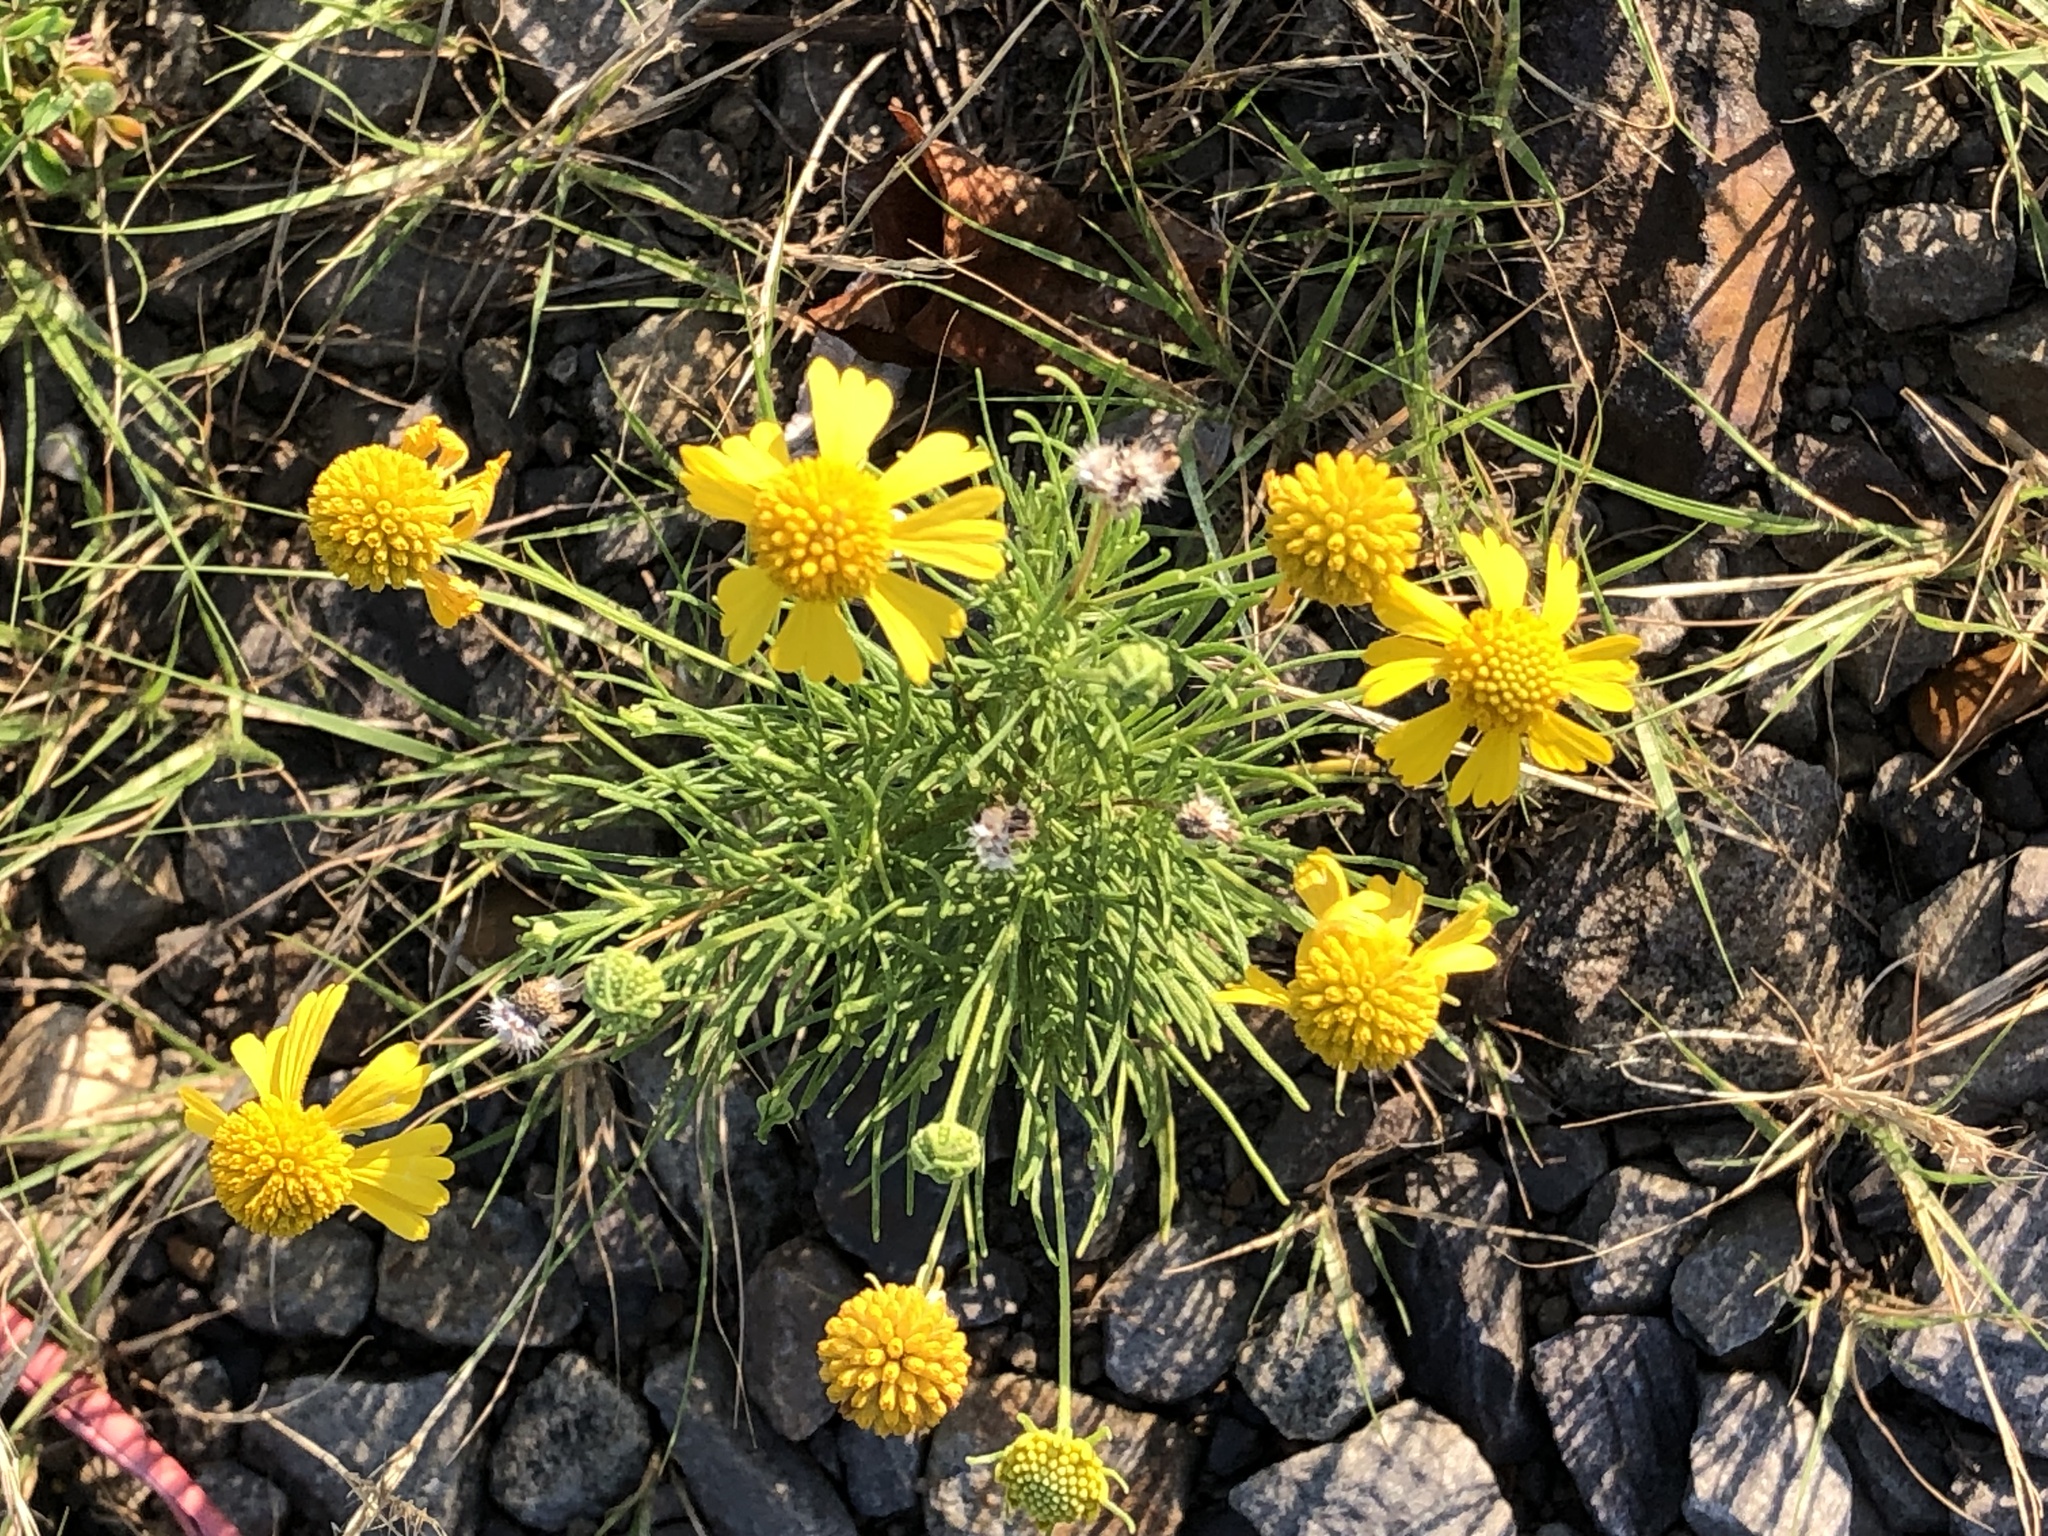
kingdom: Plantae
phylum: Tracheophyta
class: Magnoliopsida
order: Asterales
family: Asteraceae
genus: Helenium
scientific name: Helenium amarum
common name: Bitter sneezeweed
